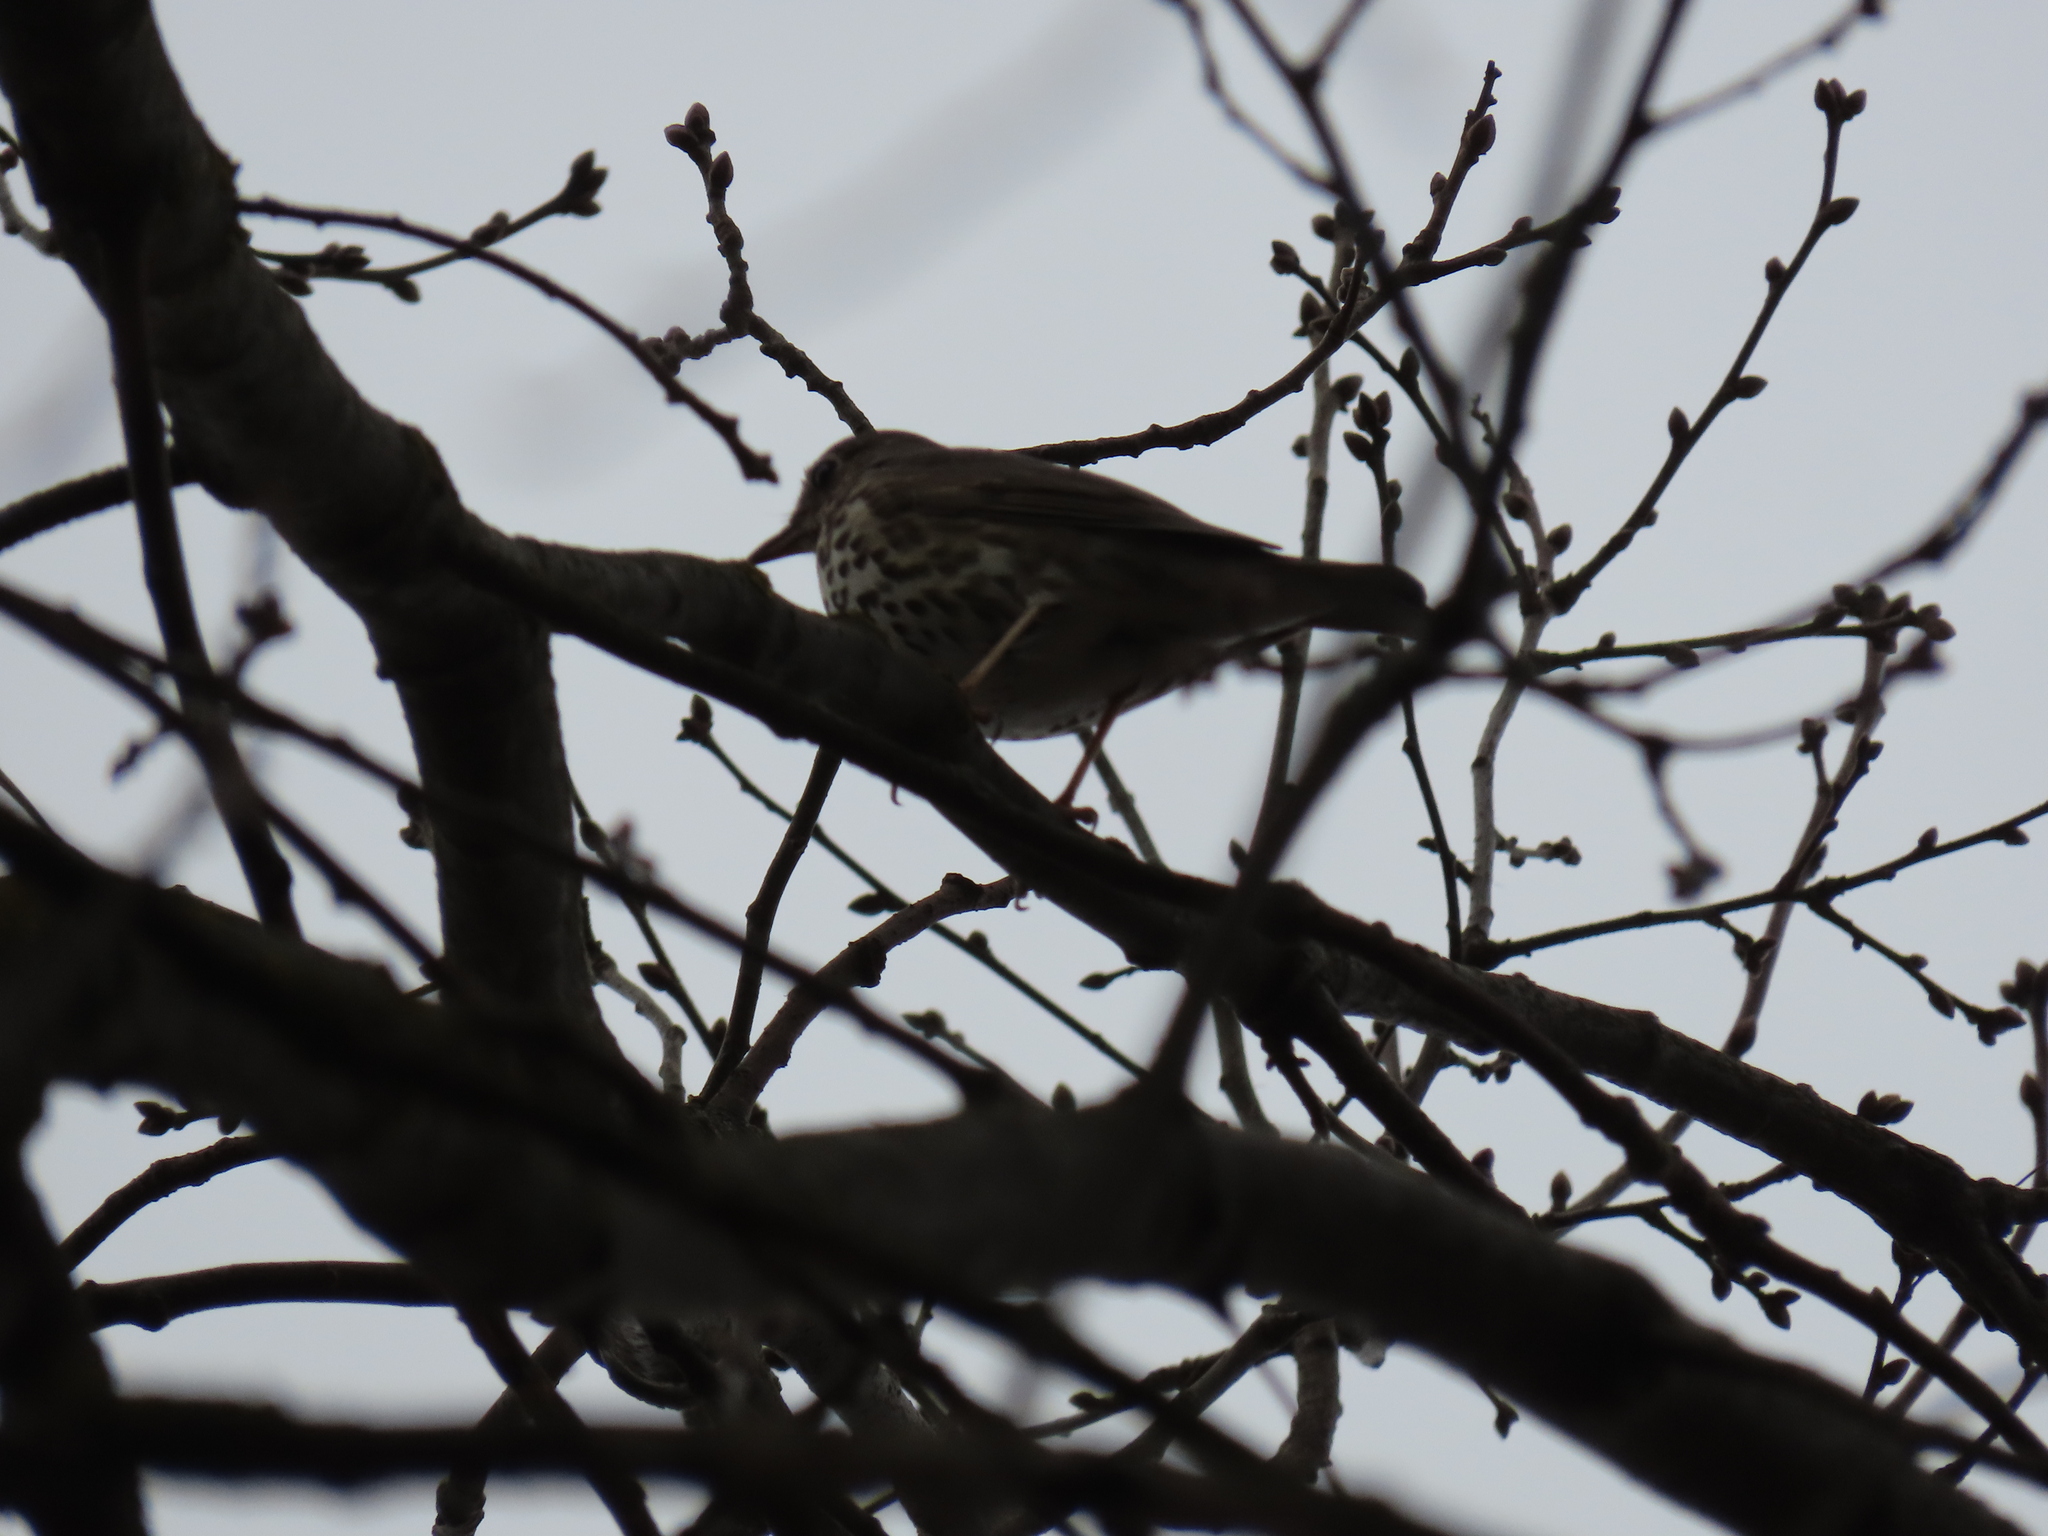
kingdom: Animalia
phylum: Chordata
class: Aves
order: Passeriformes
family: Turdidae
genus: Turdus
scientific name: Turdus philomelos
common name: Song thrush
